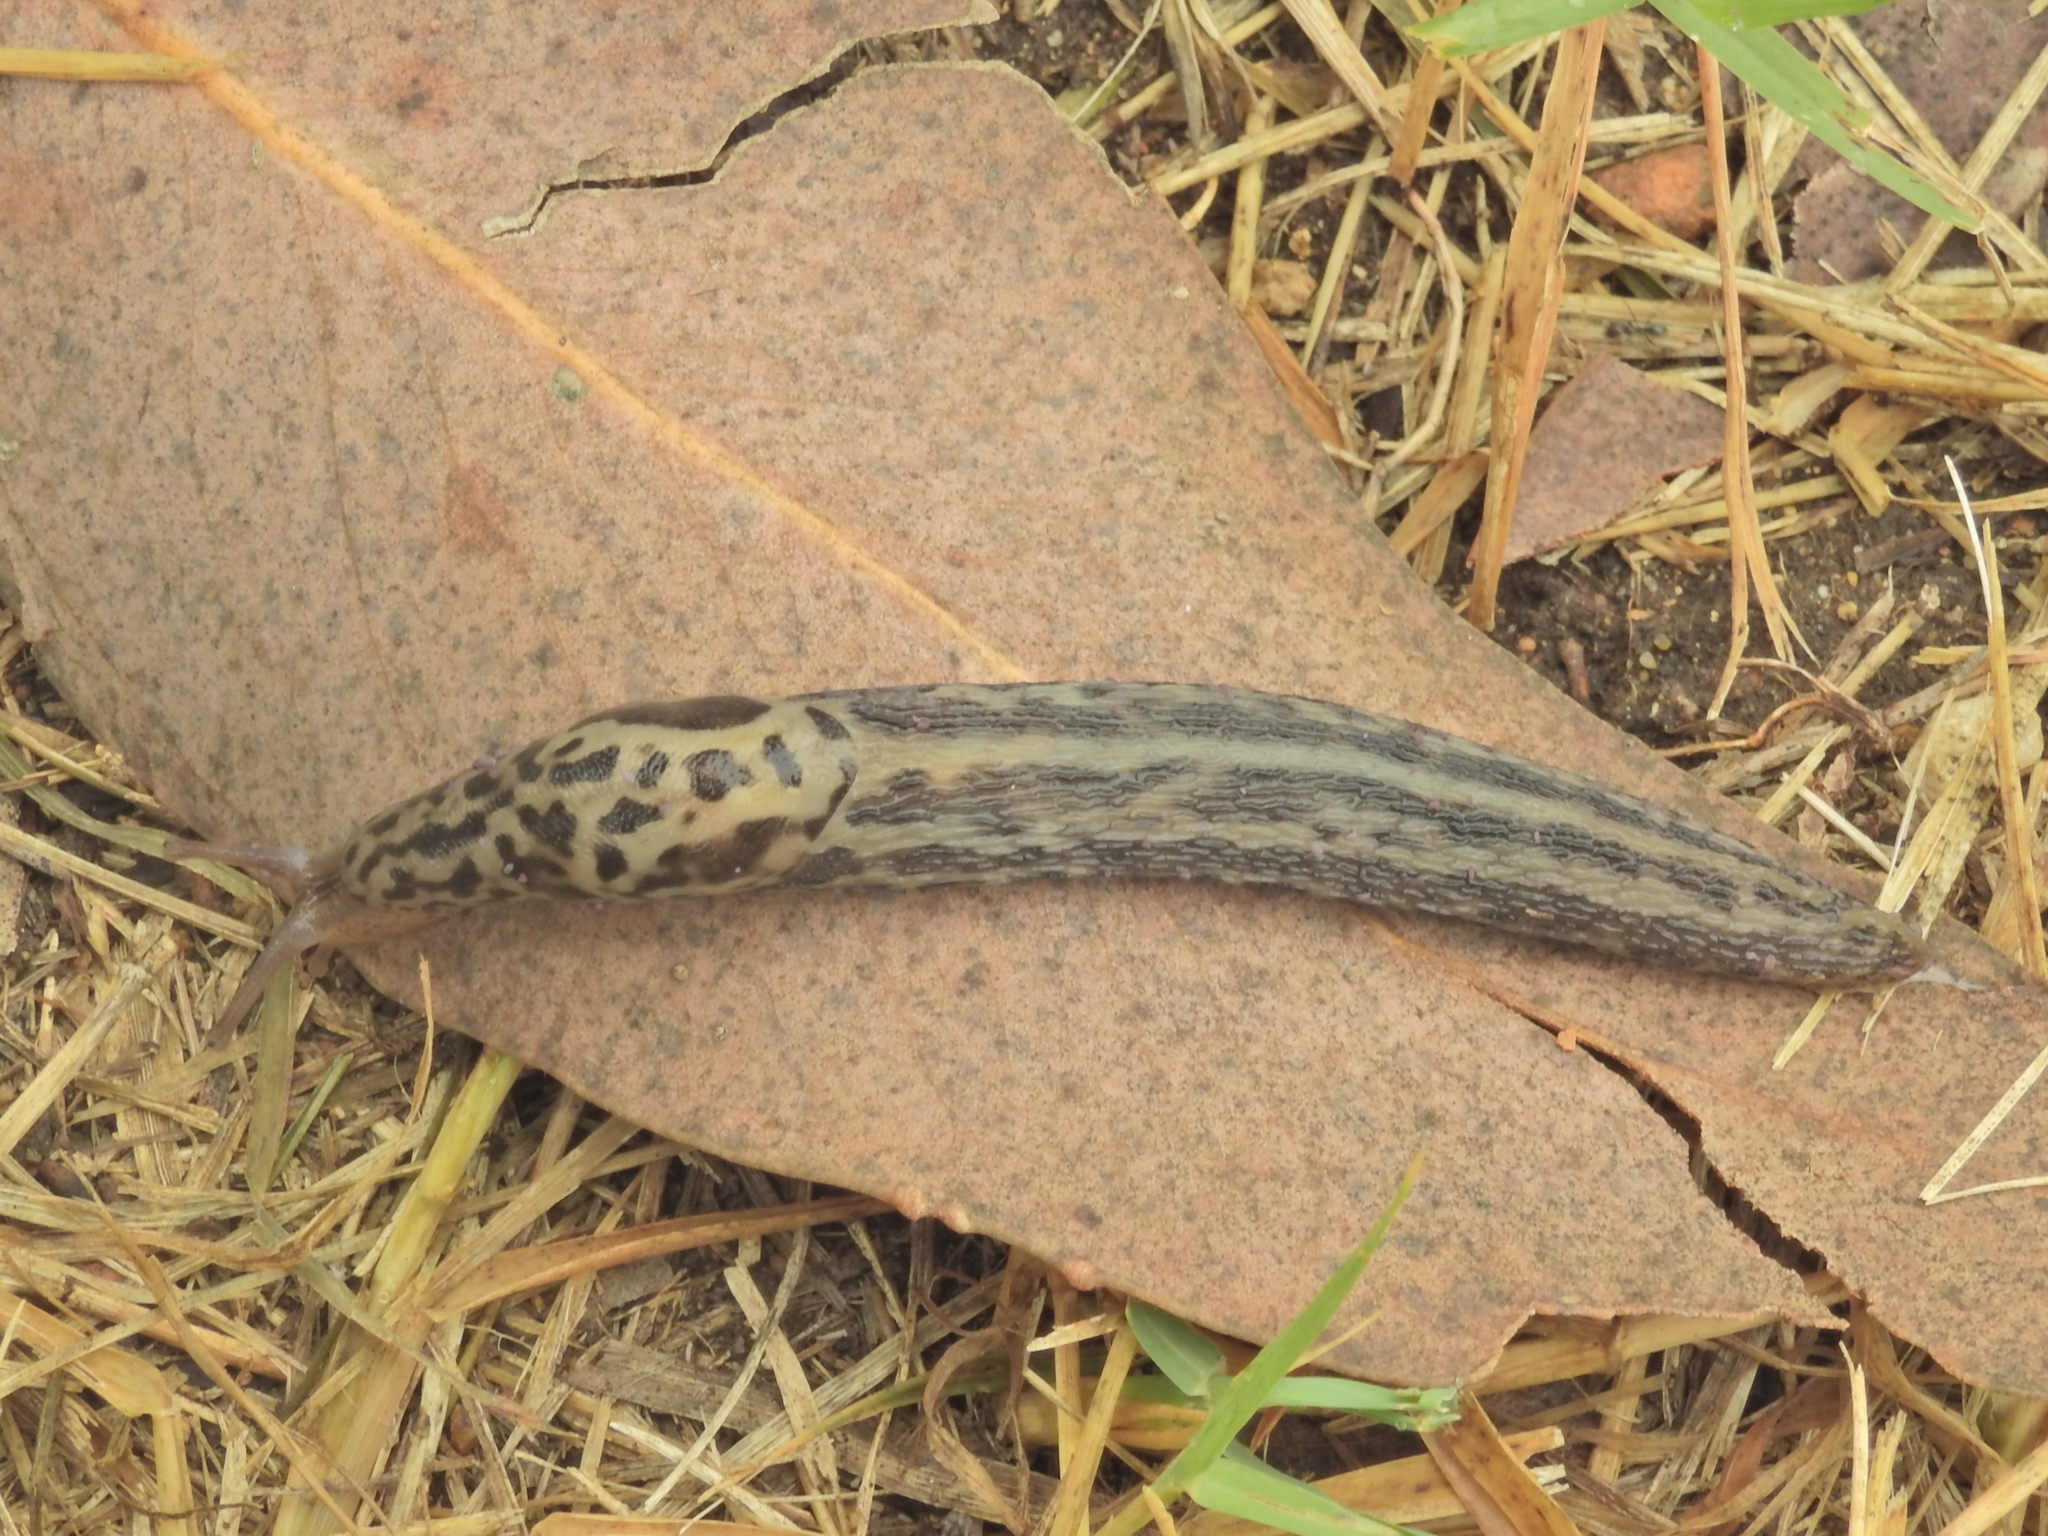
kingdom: Animalia
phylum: Mollusca
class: Gastropoda
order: Stylommatophora
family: Limacidae
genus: Limax
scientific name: Limax maximus
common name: Great grey slug
